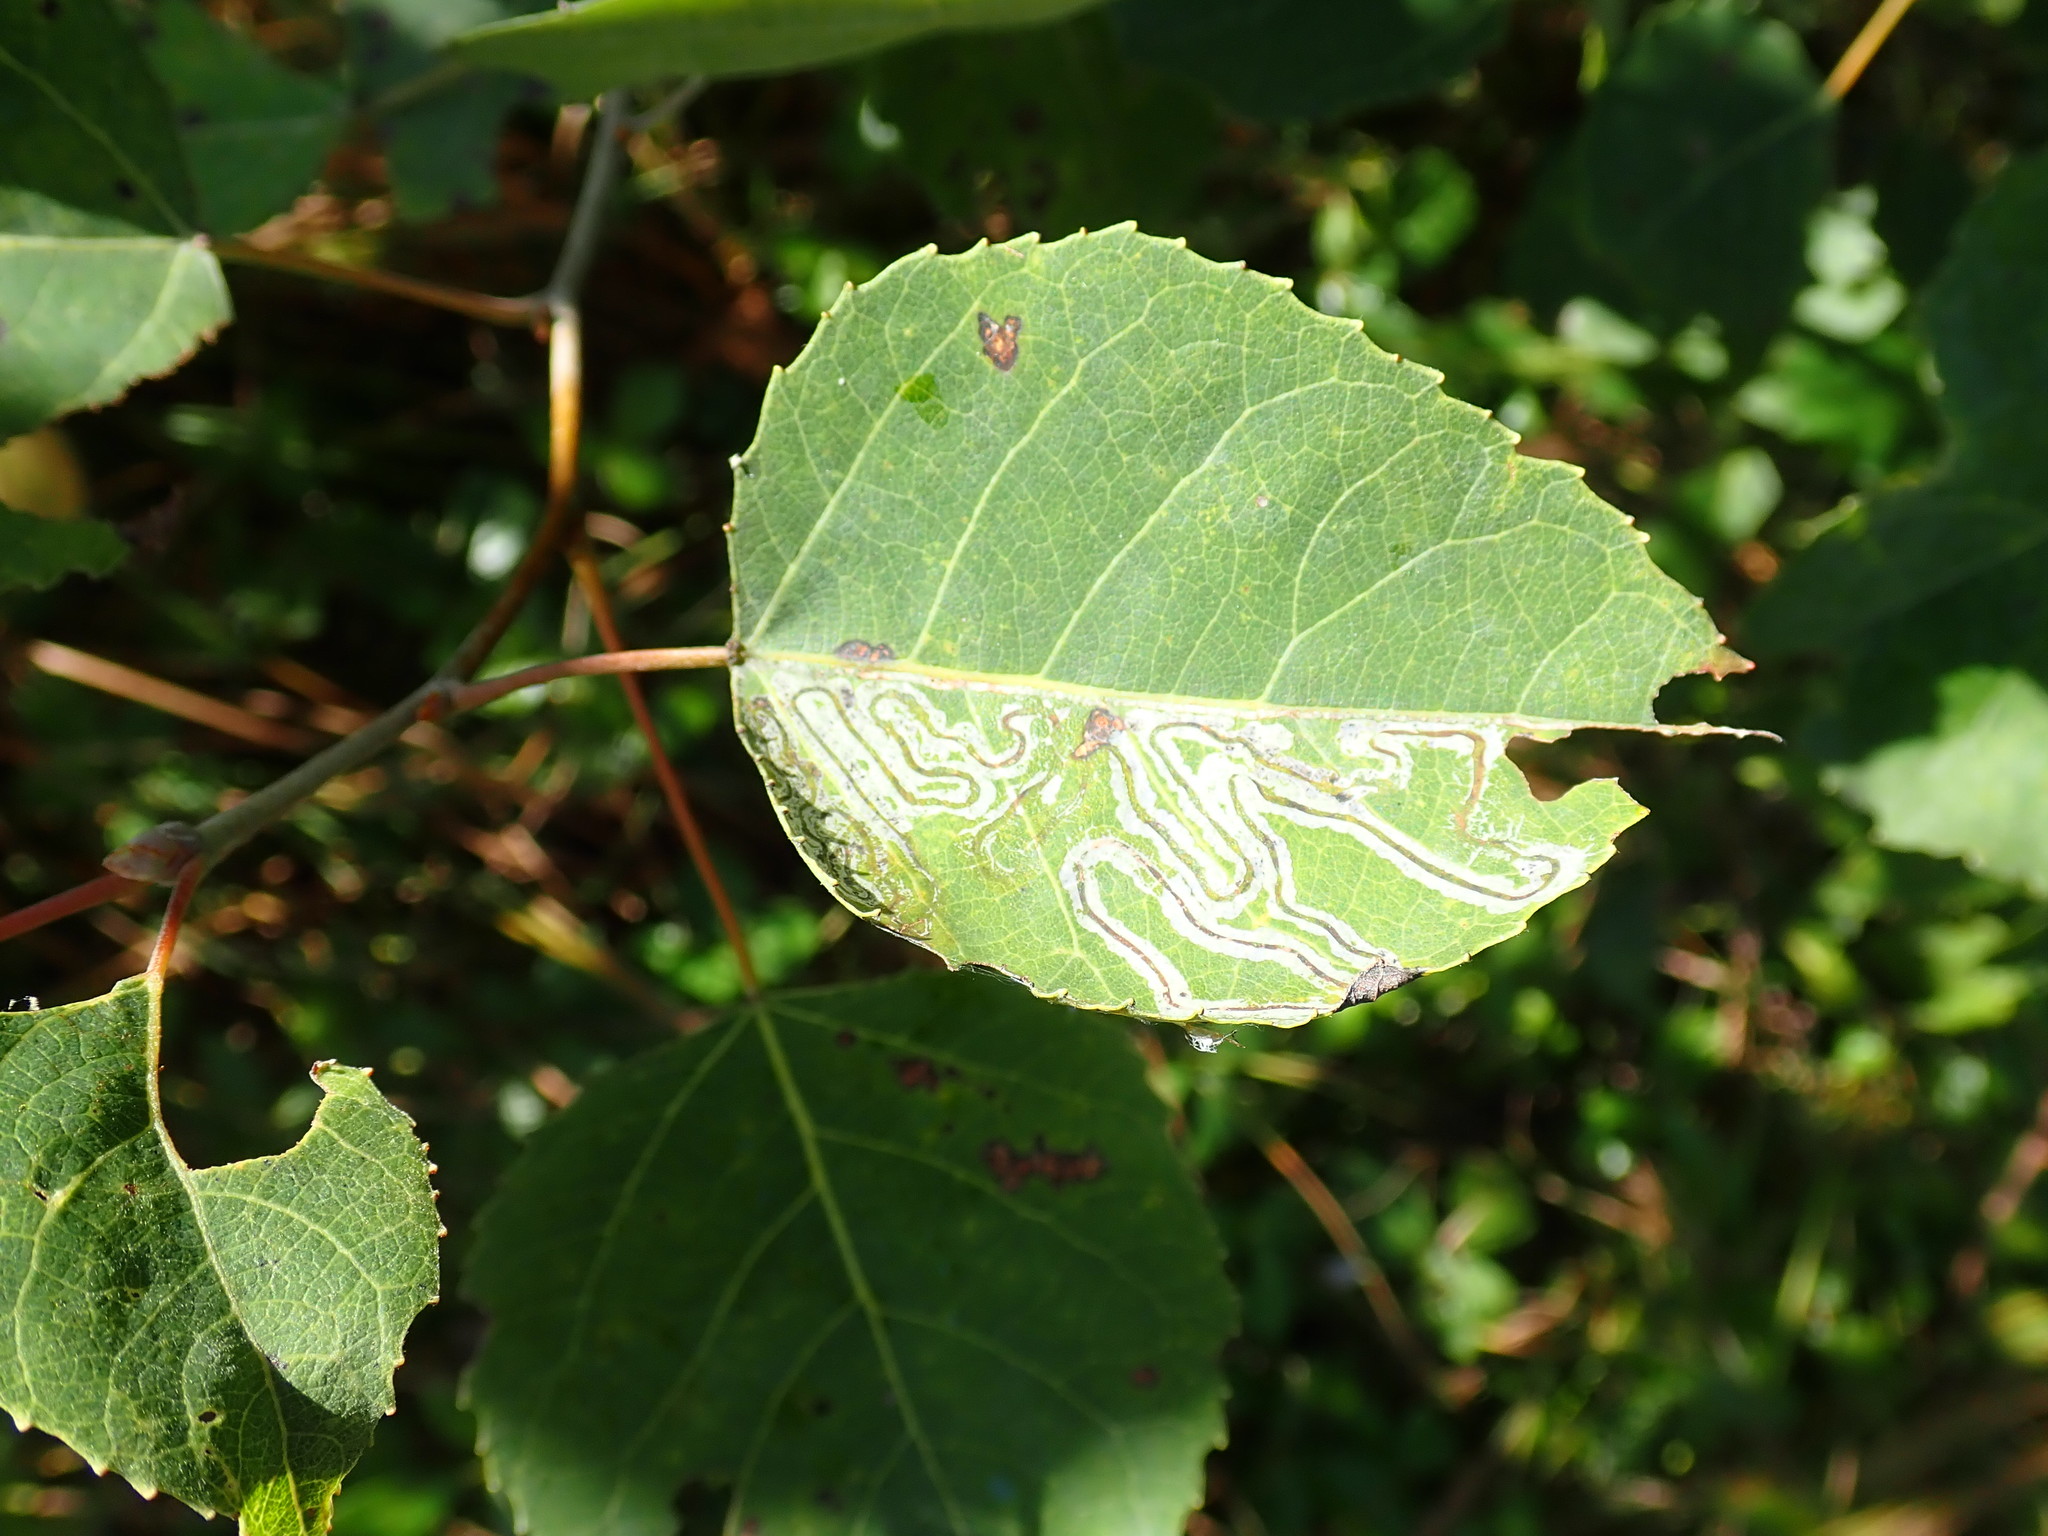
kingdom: Animalia
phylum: Arthropoda
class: Insecta
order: Lepidoptera
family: Gracillariidae
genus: Phyllocnistis
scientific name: Phyllocnistis populiella
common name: Aspen serpentine leafminer moth
